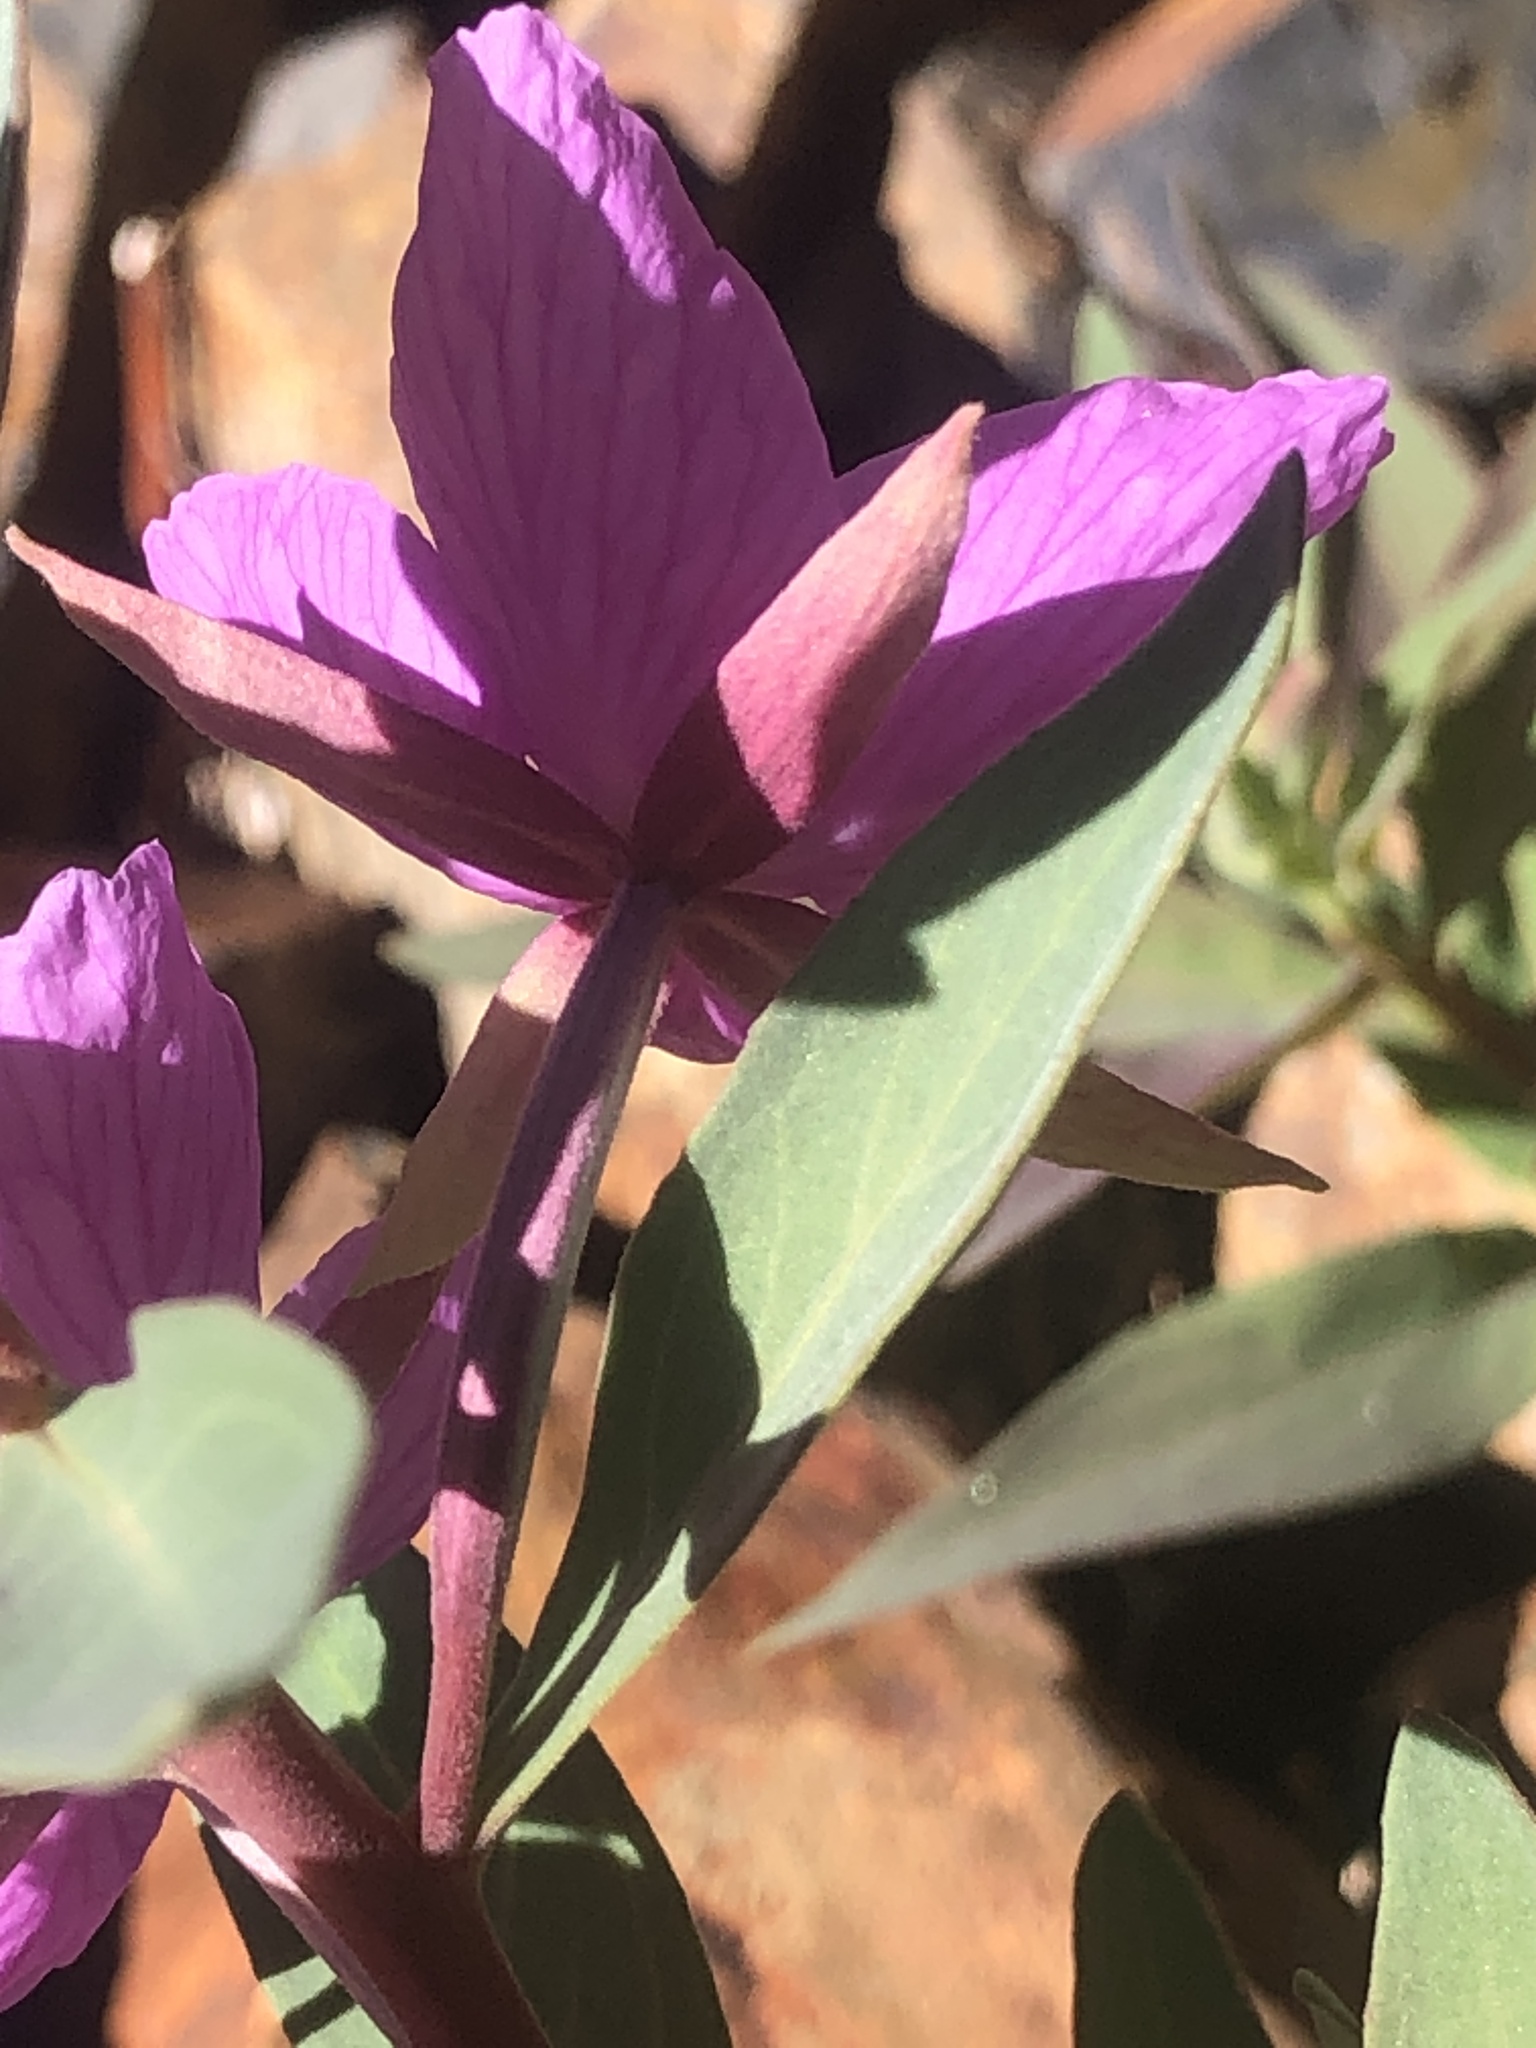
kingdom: Plantae
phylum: Tracheophyta
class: Magnoliopsida
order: Myrtales
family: Onagraceae
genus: Chamaenerion
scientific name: Chamaenerion latifolium
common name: Dwarf fireweed
